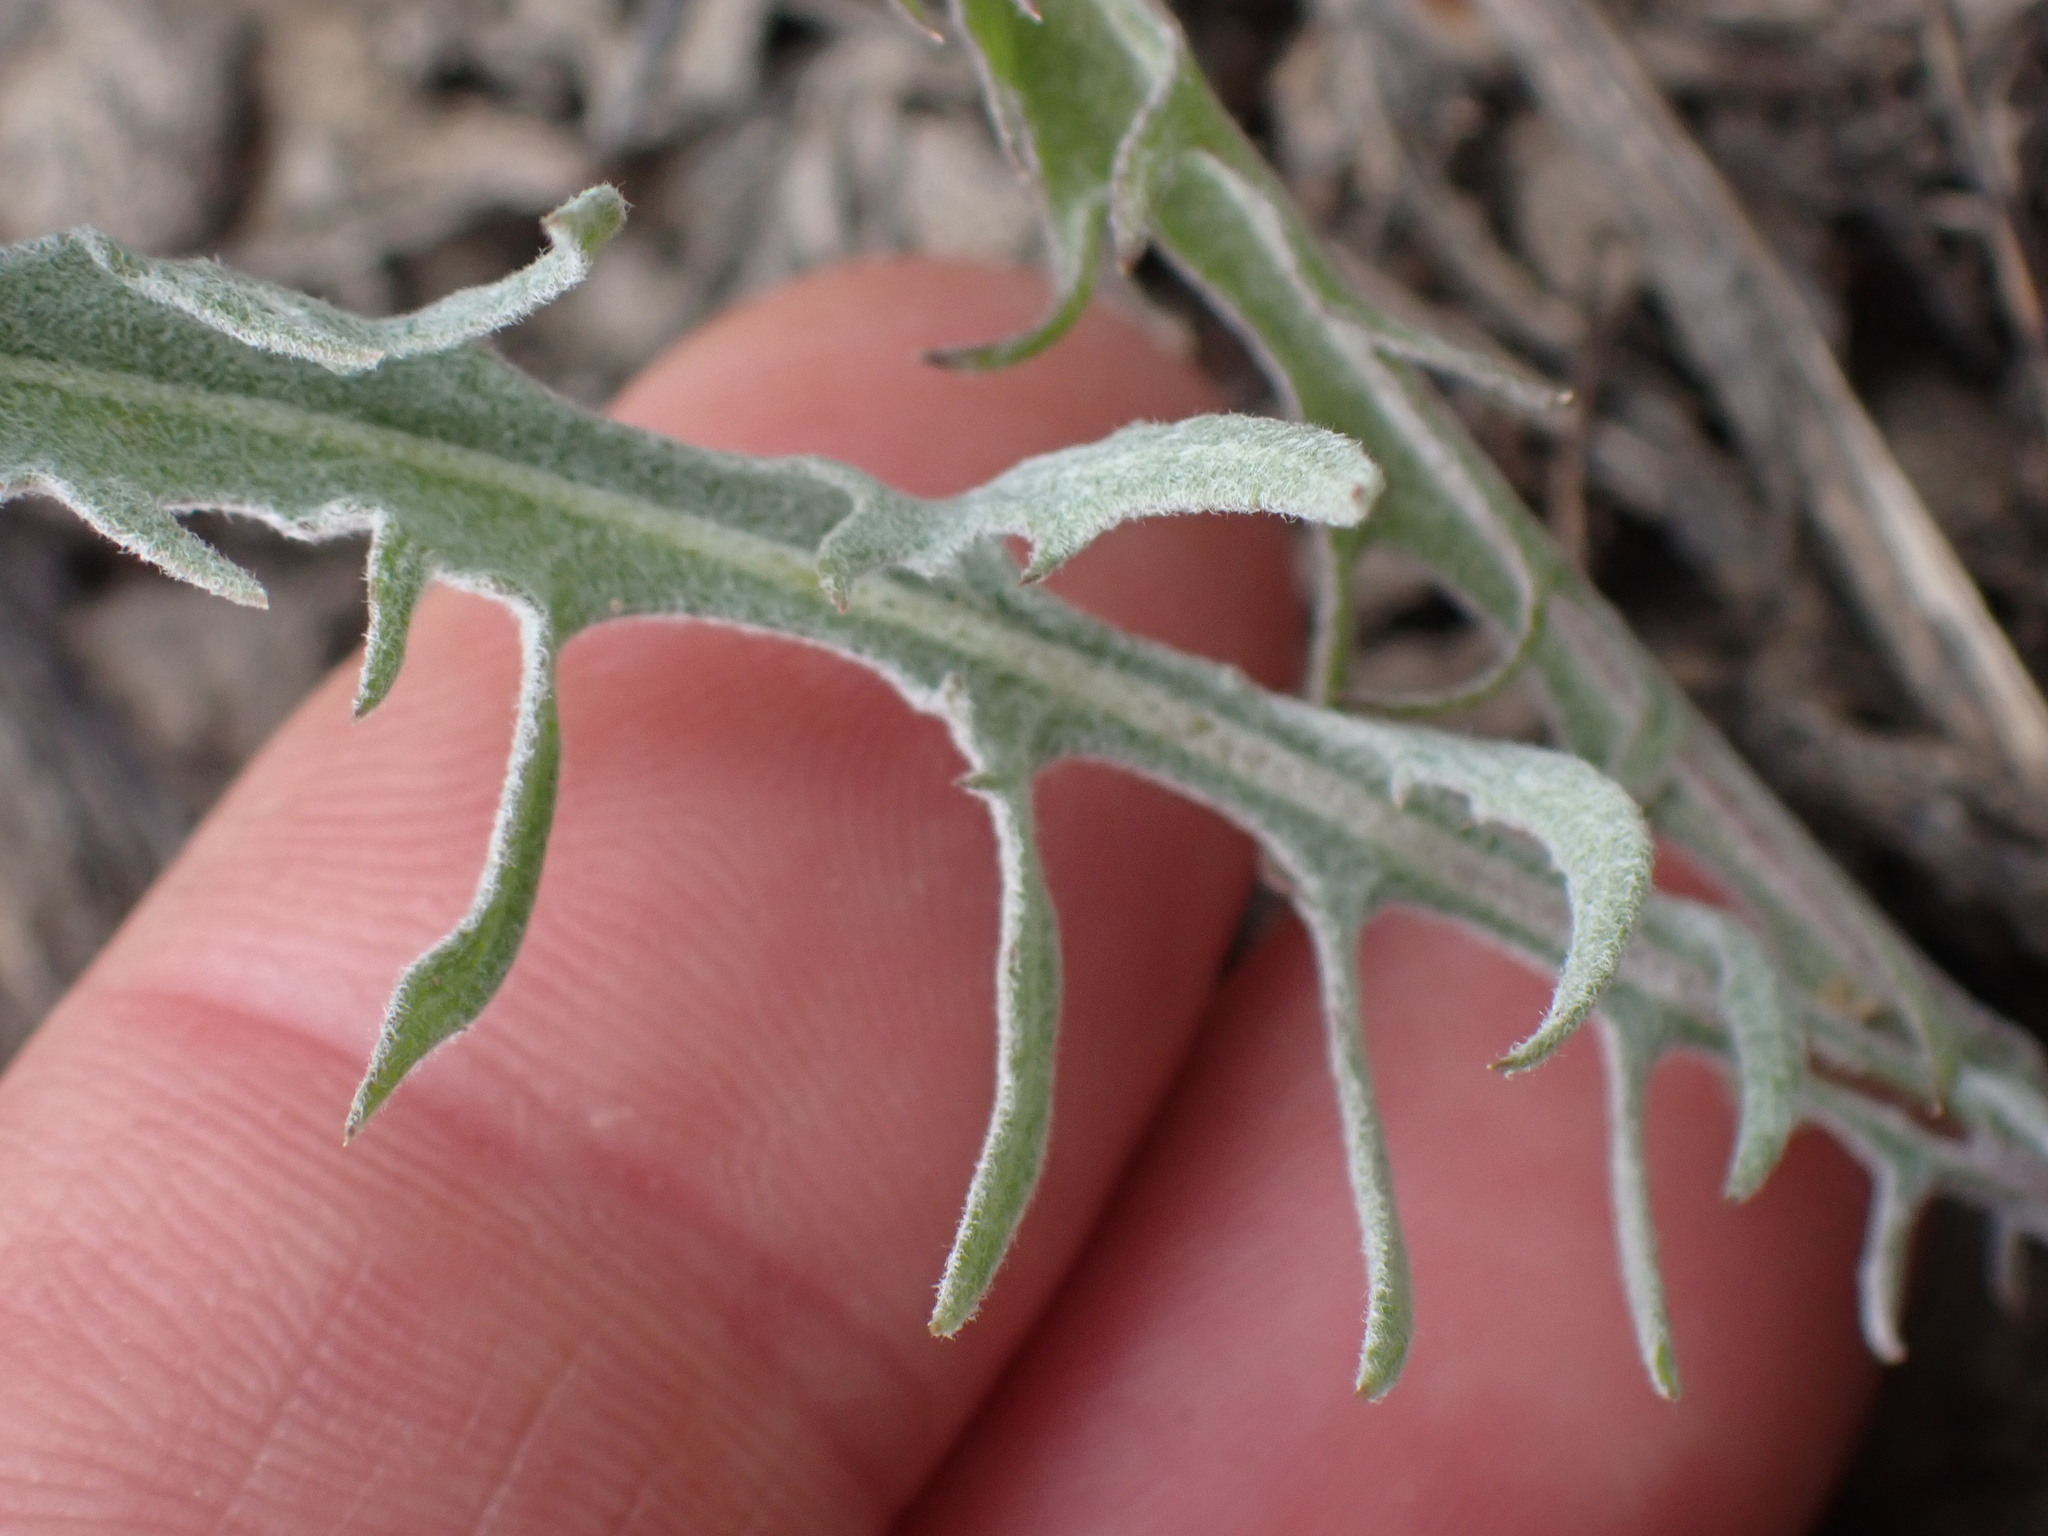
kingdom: Plantae
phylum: Tracheophyta
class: Magnoliopsida
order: Asterales
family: Asteraceae
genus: Crepis
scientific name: Crepis atribarba
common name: Dark hawk's-beard
